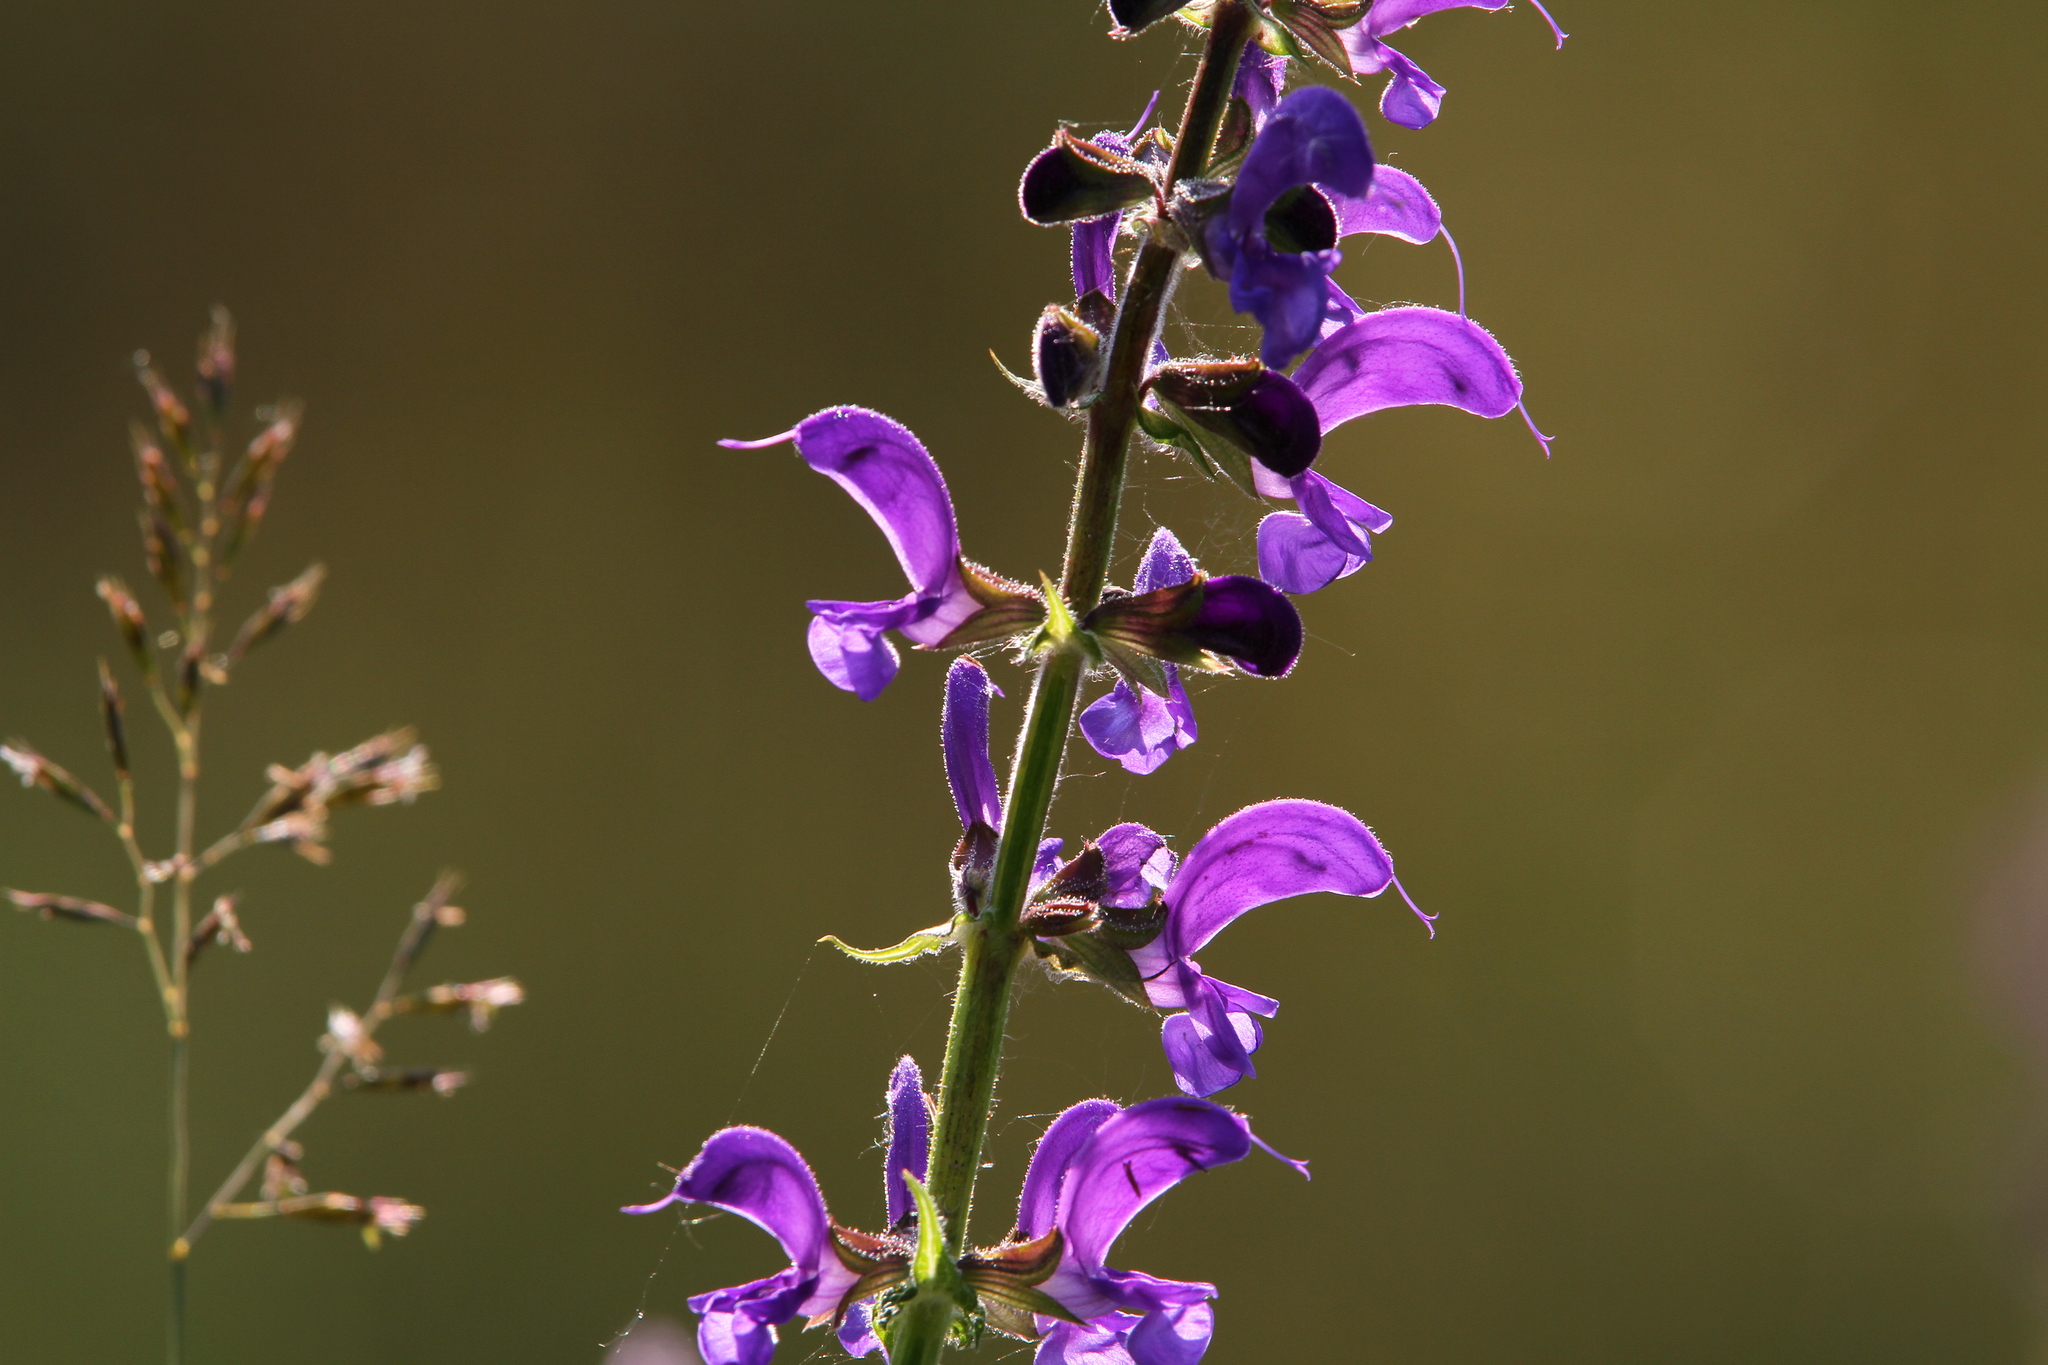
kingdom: Plantae
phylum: Tracheophyta
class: Magnoliopsida
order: Lamiales
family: Lamiaceae
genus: Salvia
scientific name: Salvia pratensis
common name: Meadow sage
